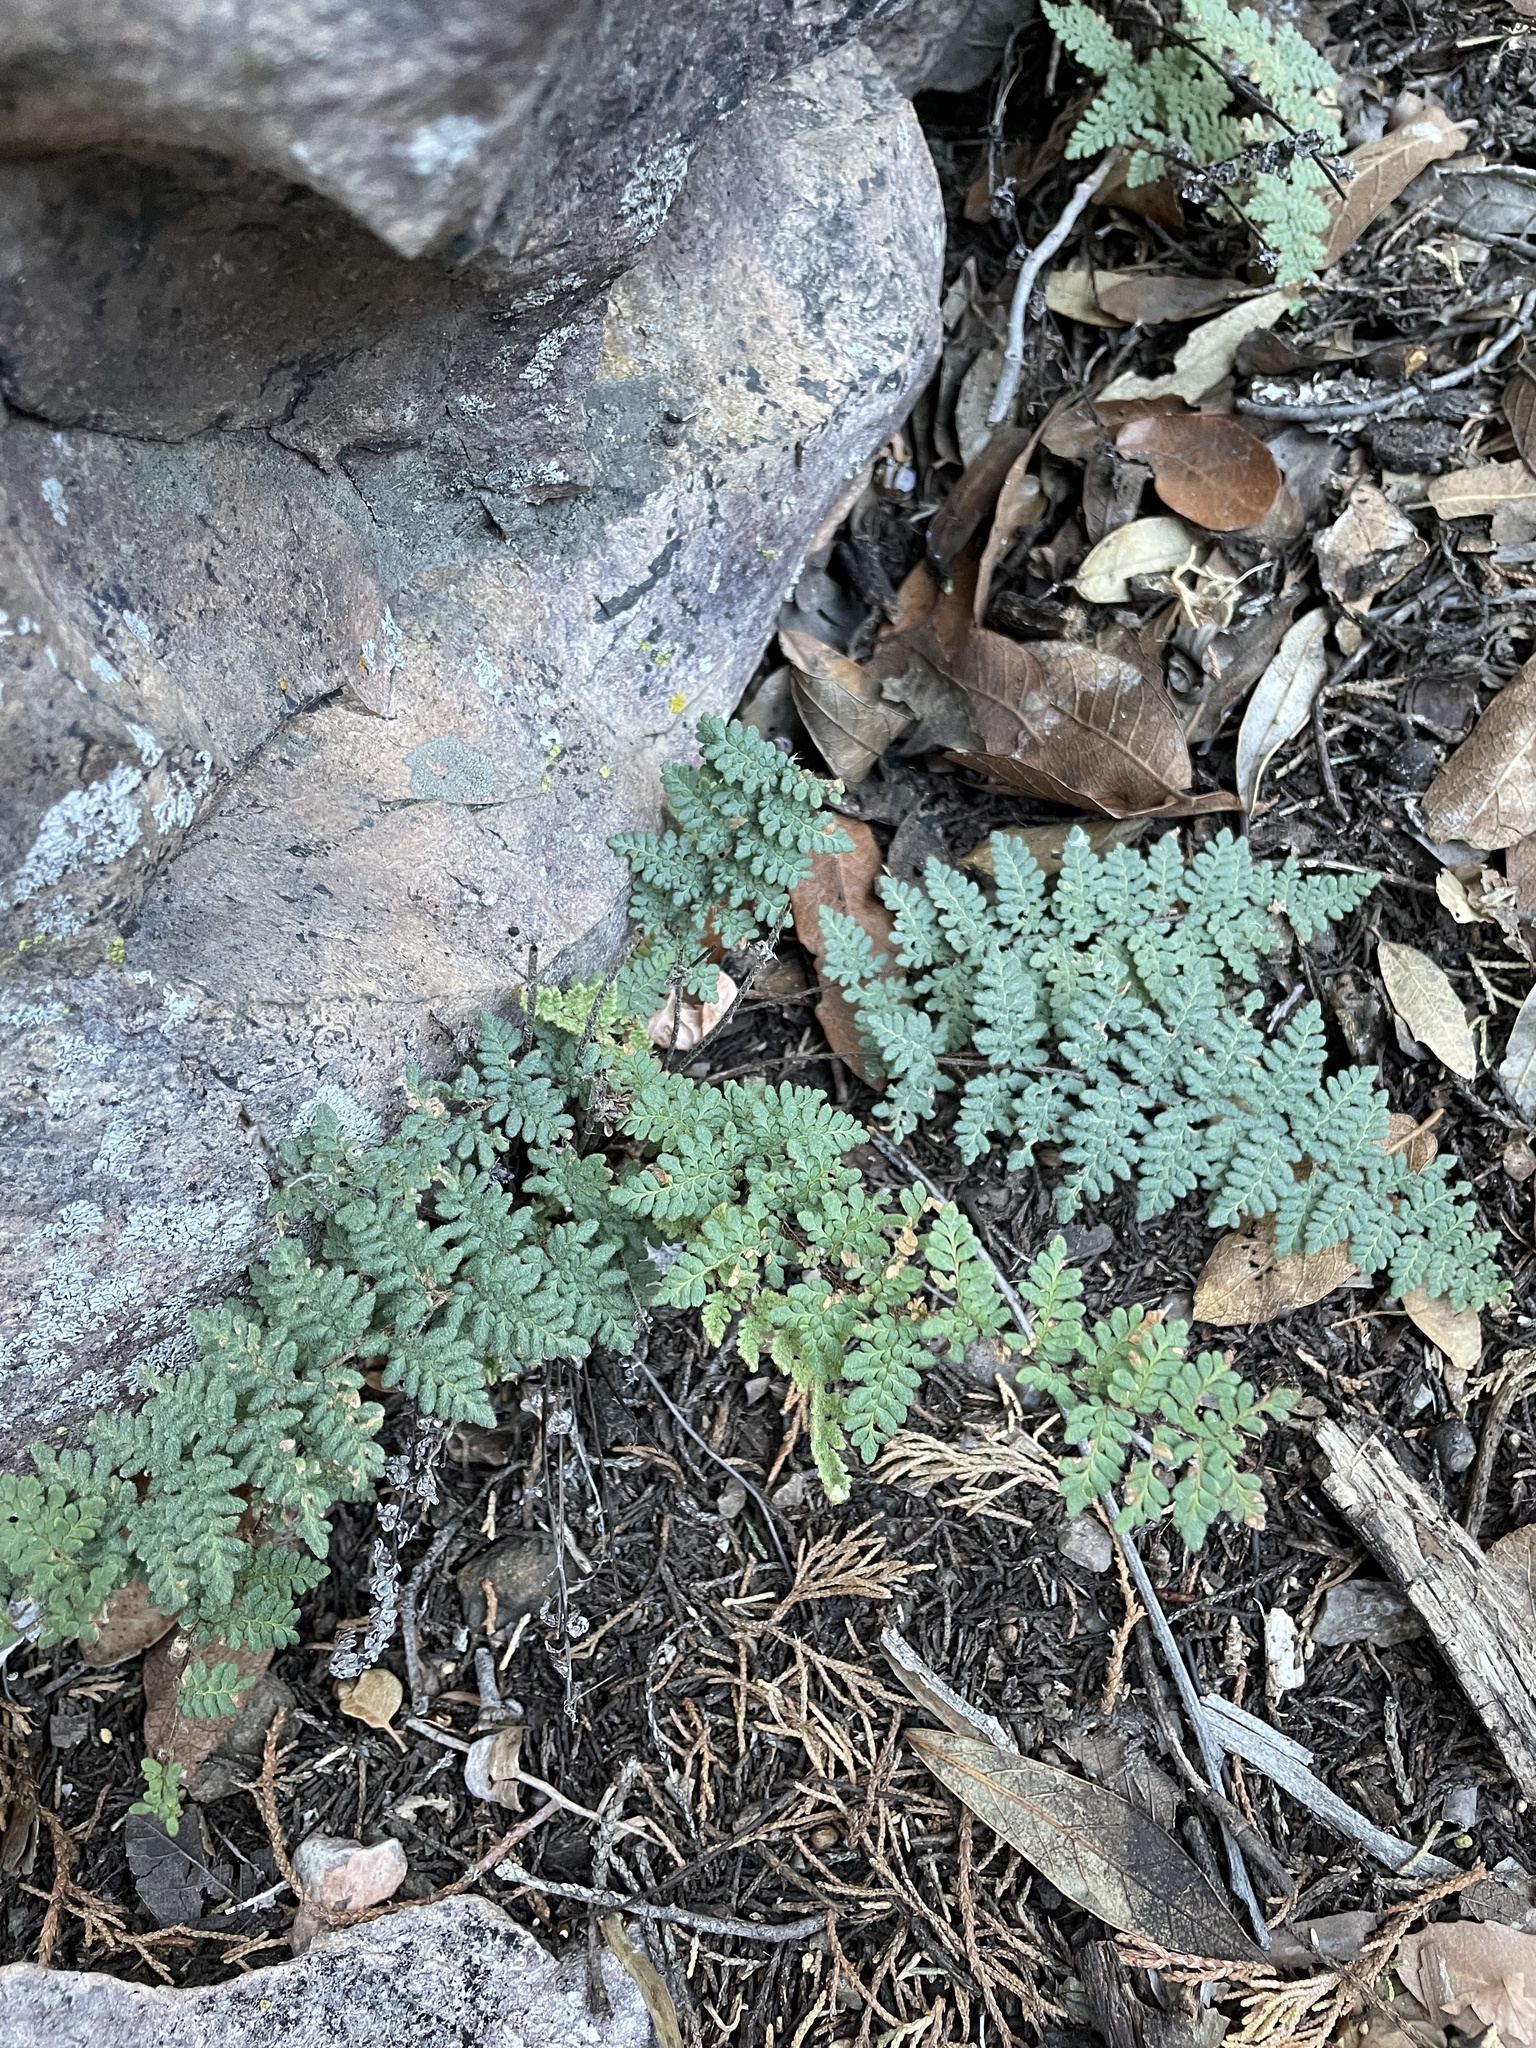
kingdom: Plantae
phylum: Tracheophyta
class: Polypodiopsida
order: Polypodiales
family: Pteridaceae
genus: Myriopteris
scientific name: Myriopteris tomentosa
